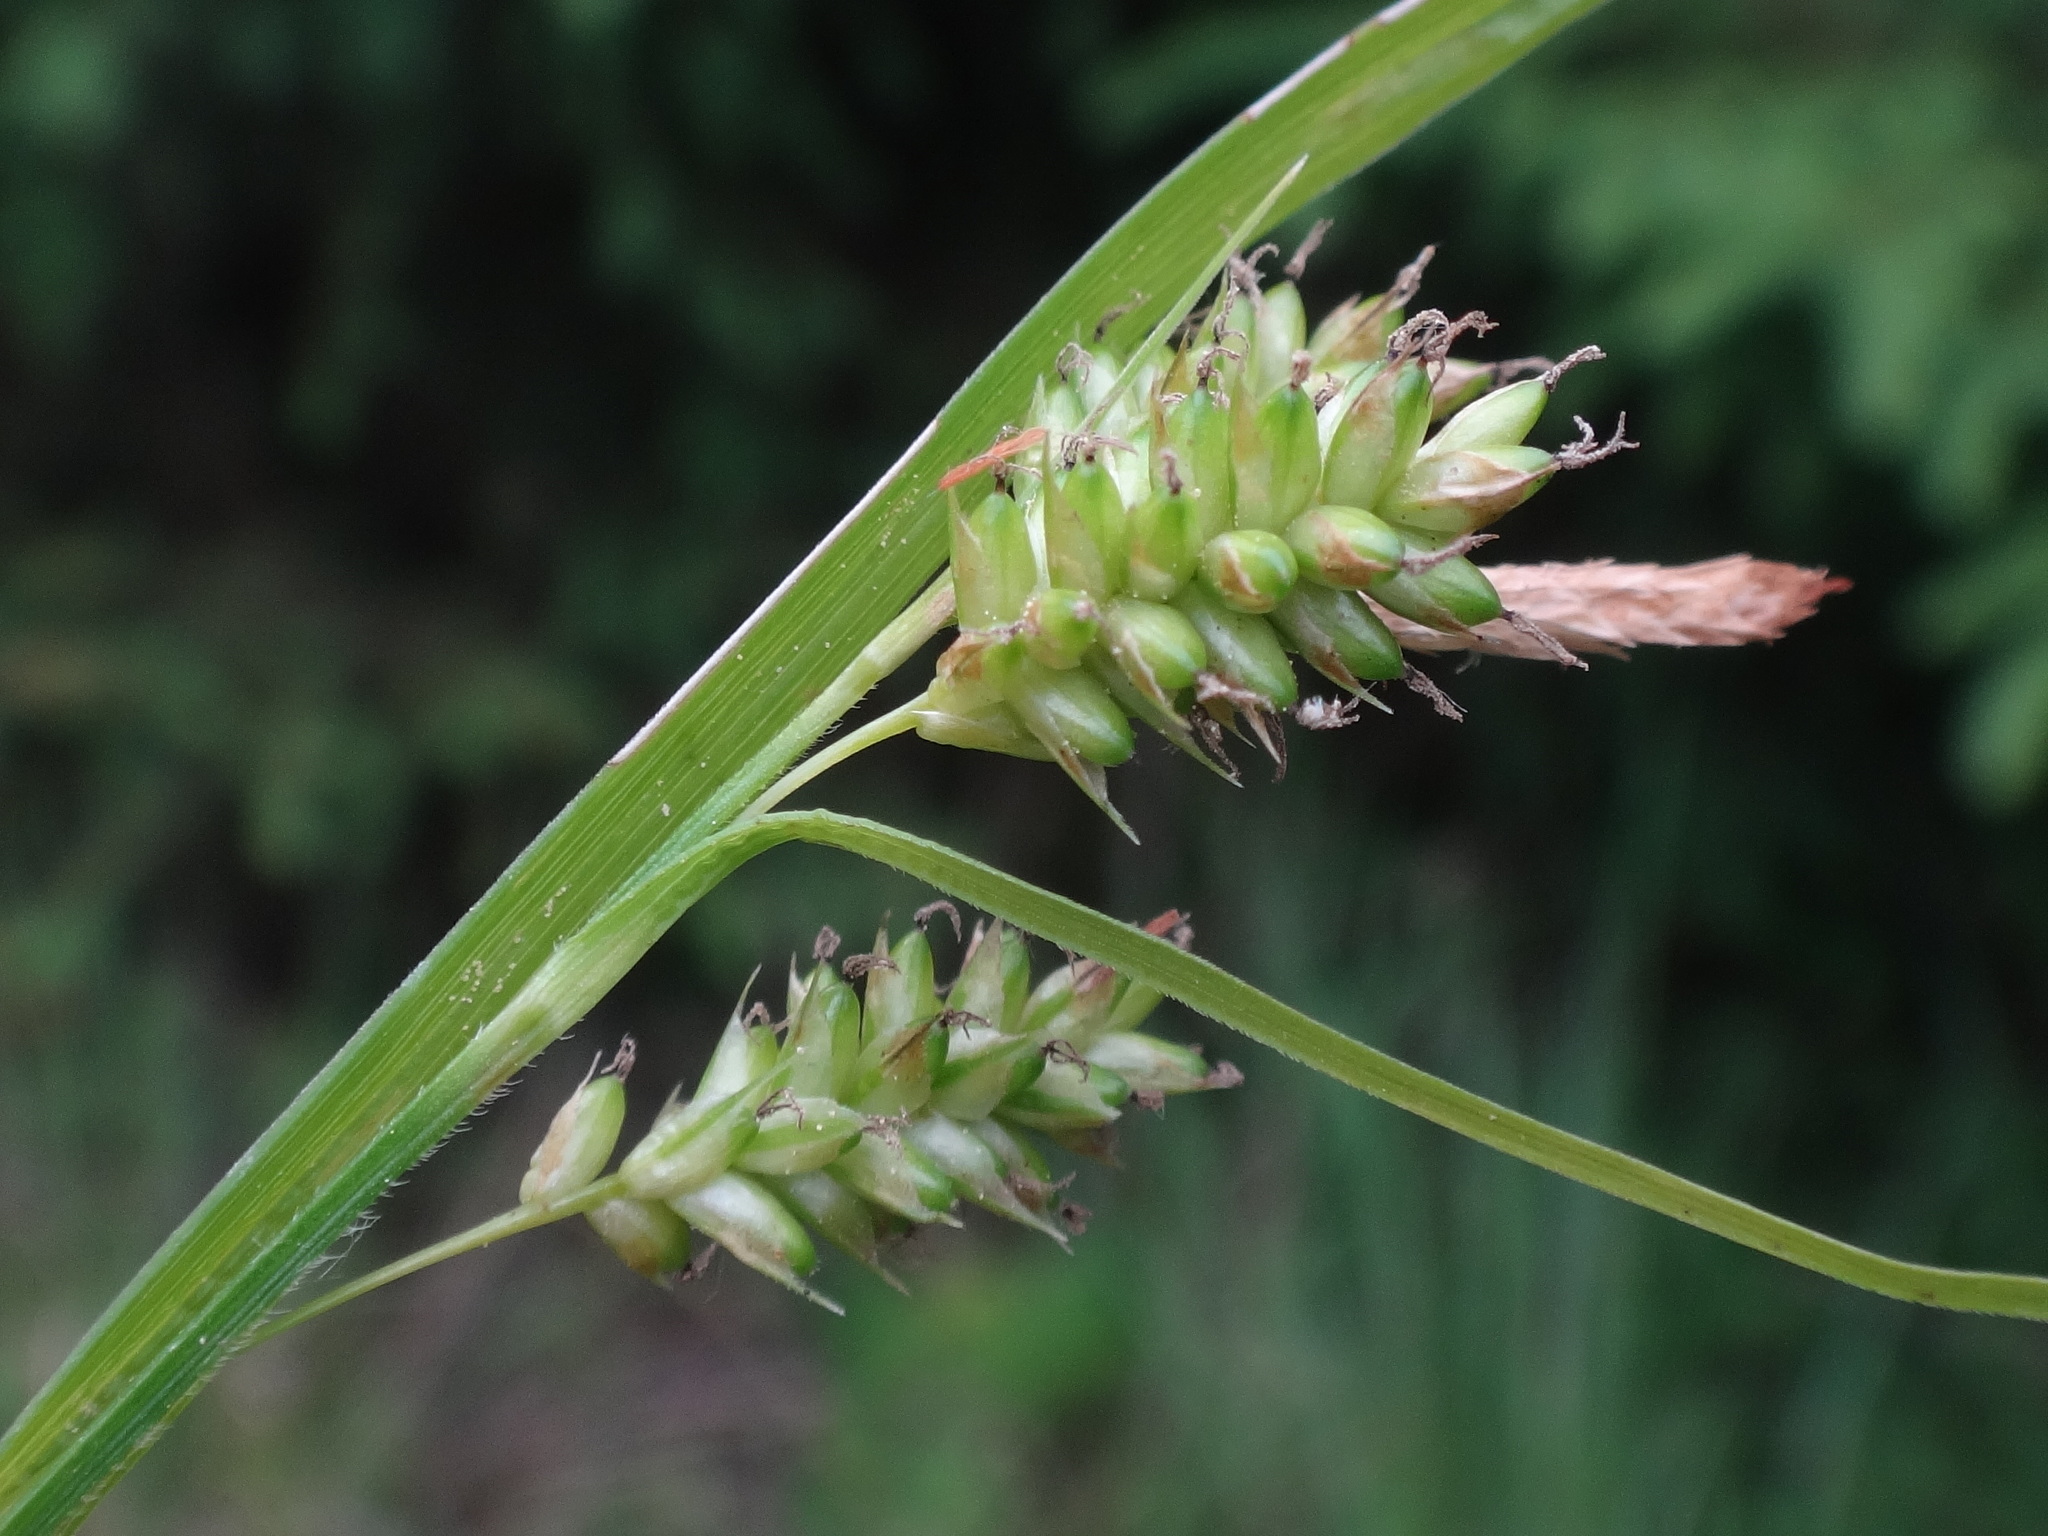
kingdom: Plantae
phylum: Tracheophyta
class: Liliopsida
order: Poales
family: Cyperaceae
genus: Carex
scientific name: Carex pallescens
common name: Pale sedge
